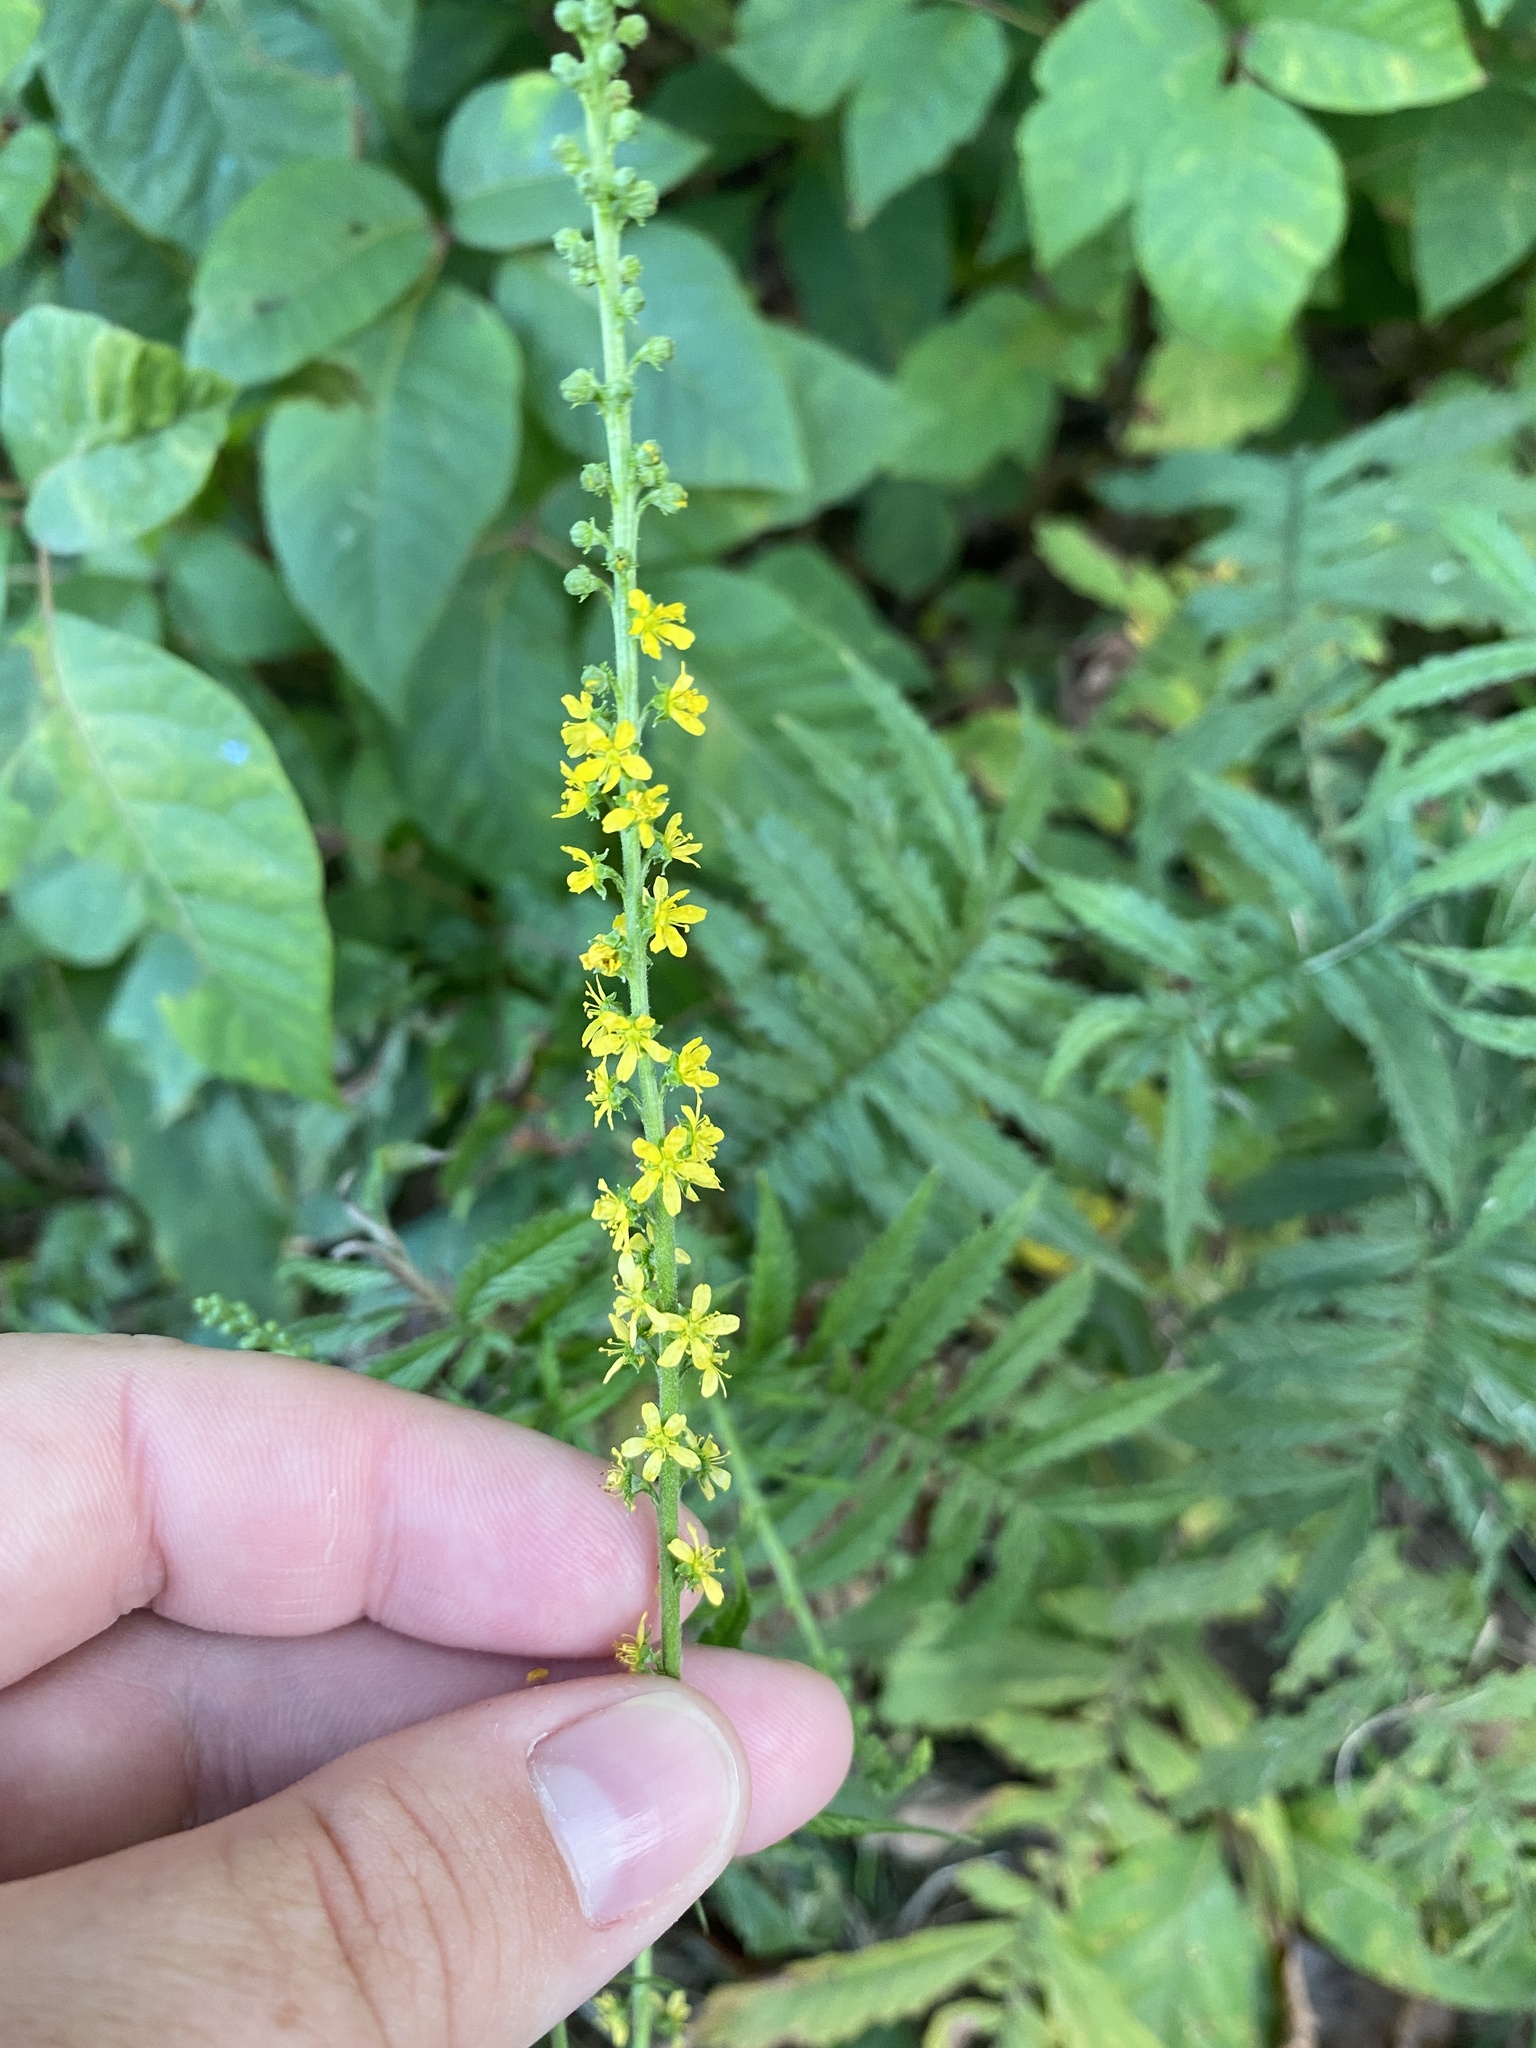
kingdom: Plantae
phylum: Tracheophyta
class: Magnoliopsida
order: Rosales
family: Rosaceae
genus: Agrimonia
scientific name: Agrimonia parviflora
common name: Harvest-lice
